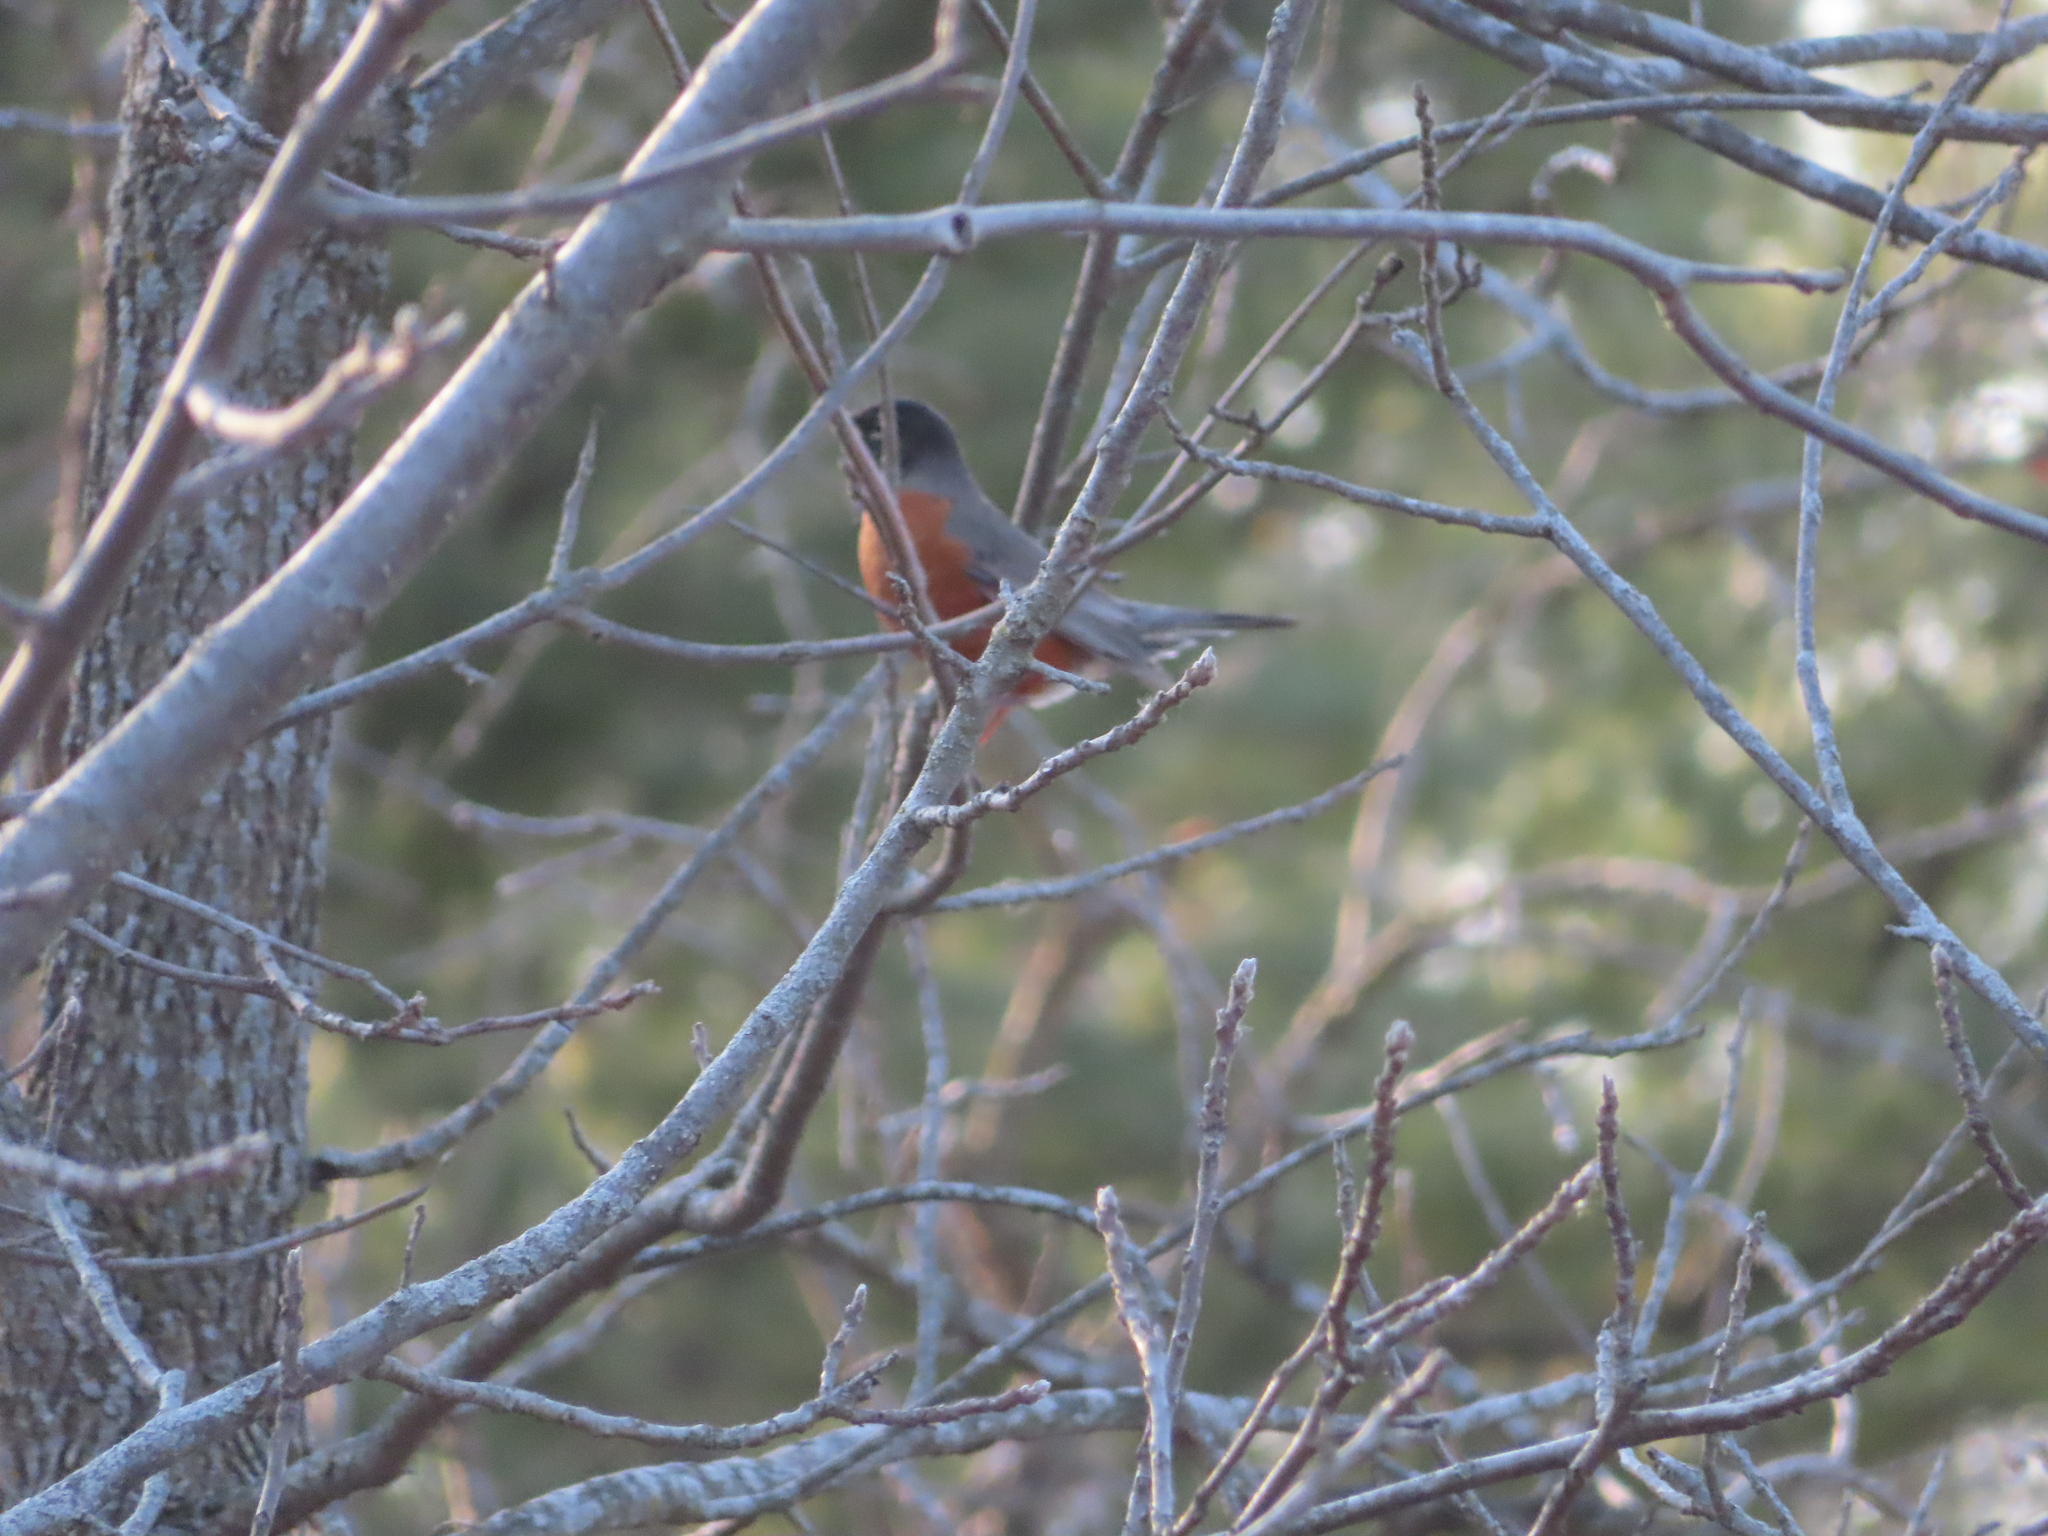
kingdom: Animalia
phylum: Chordata
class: Aves
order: Passeriformes
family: Turdidae
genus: Turdus
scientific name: Turdus migratorius
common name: American robin
